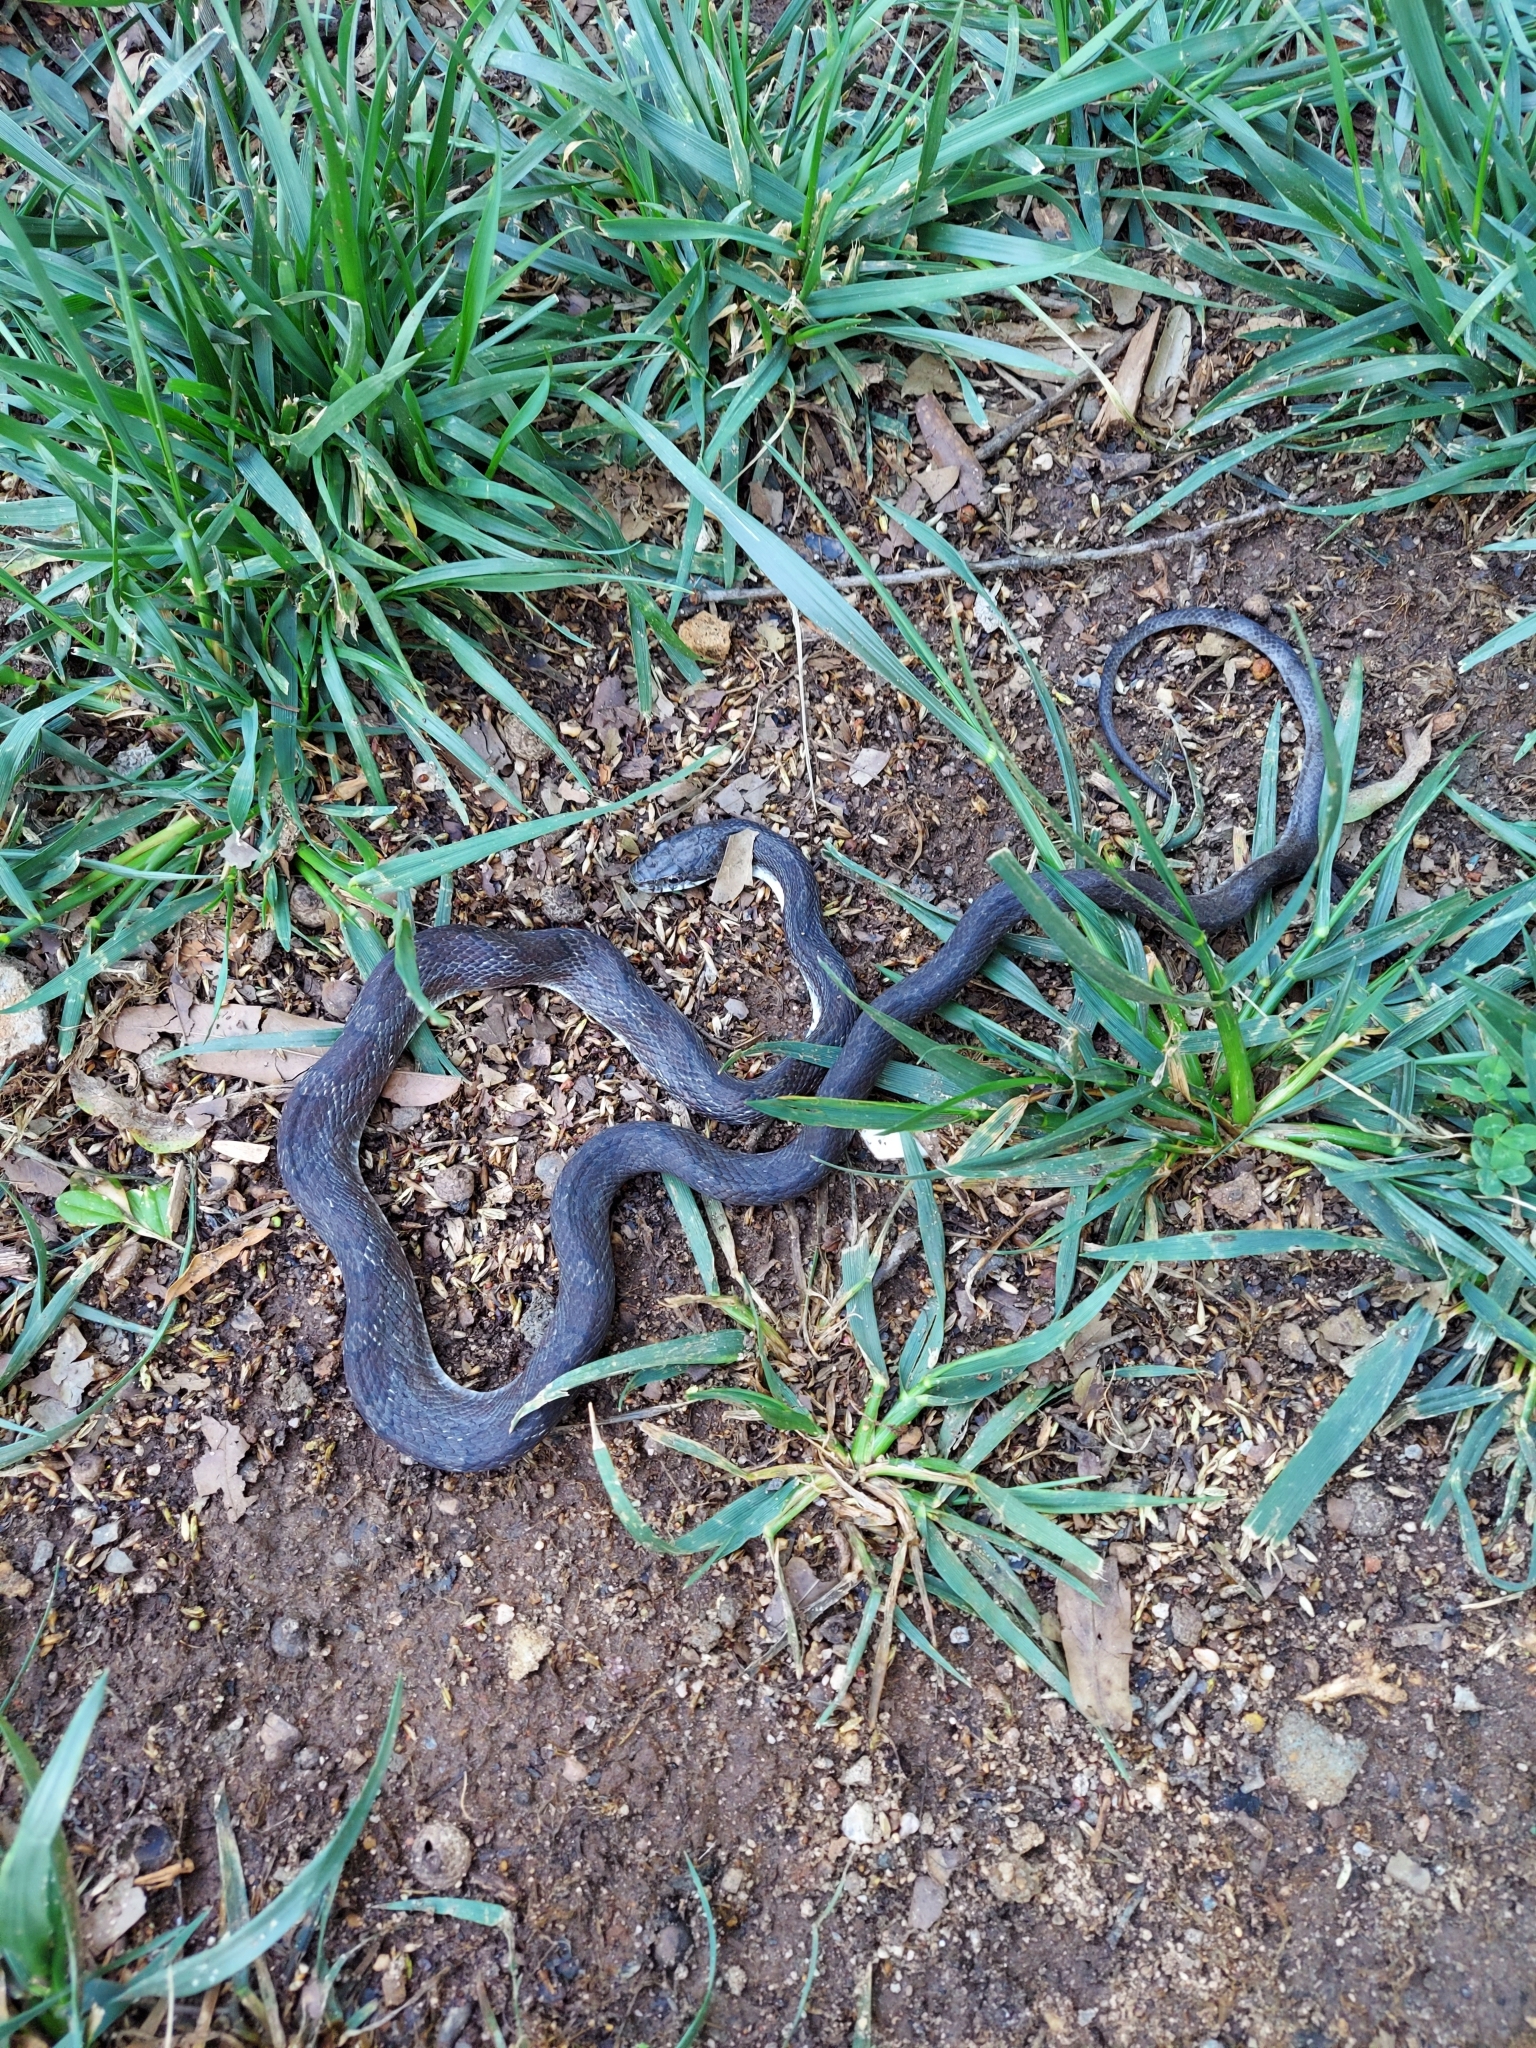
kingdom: Animalia
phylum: Chordata
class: Squamata
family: Colubridae
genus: Pantherophis
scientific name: Pantherophis
